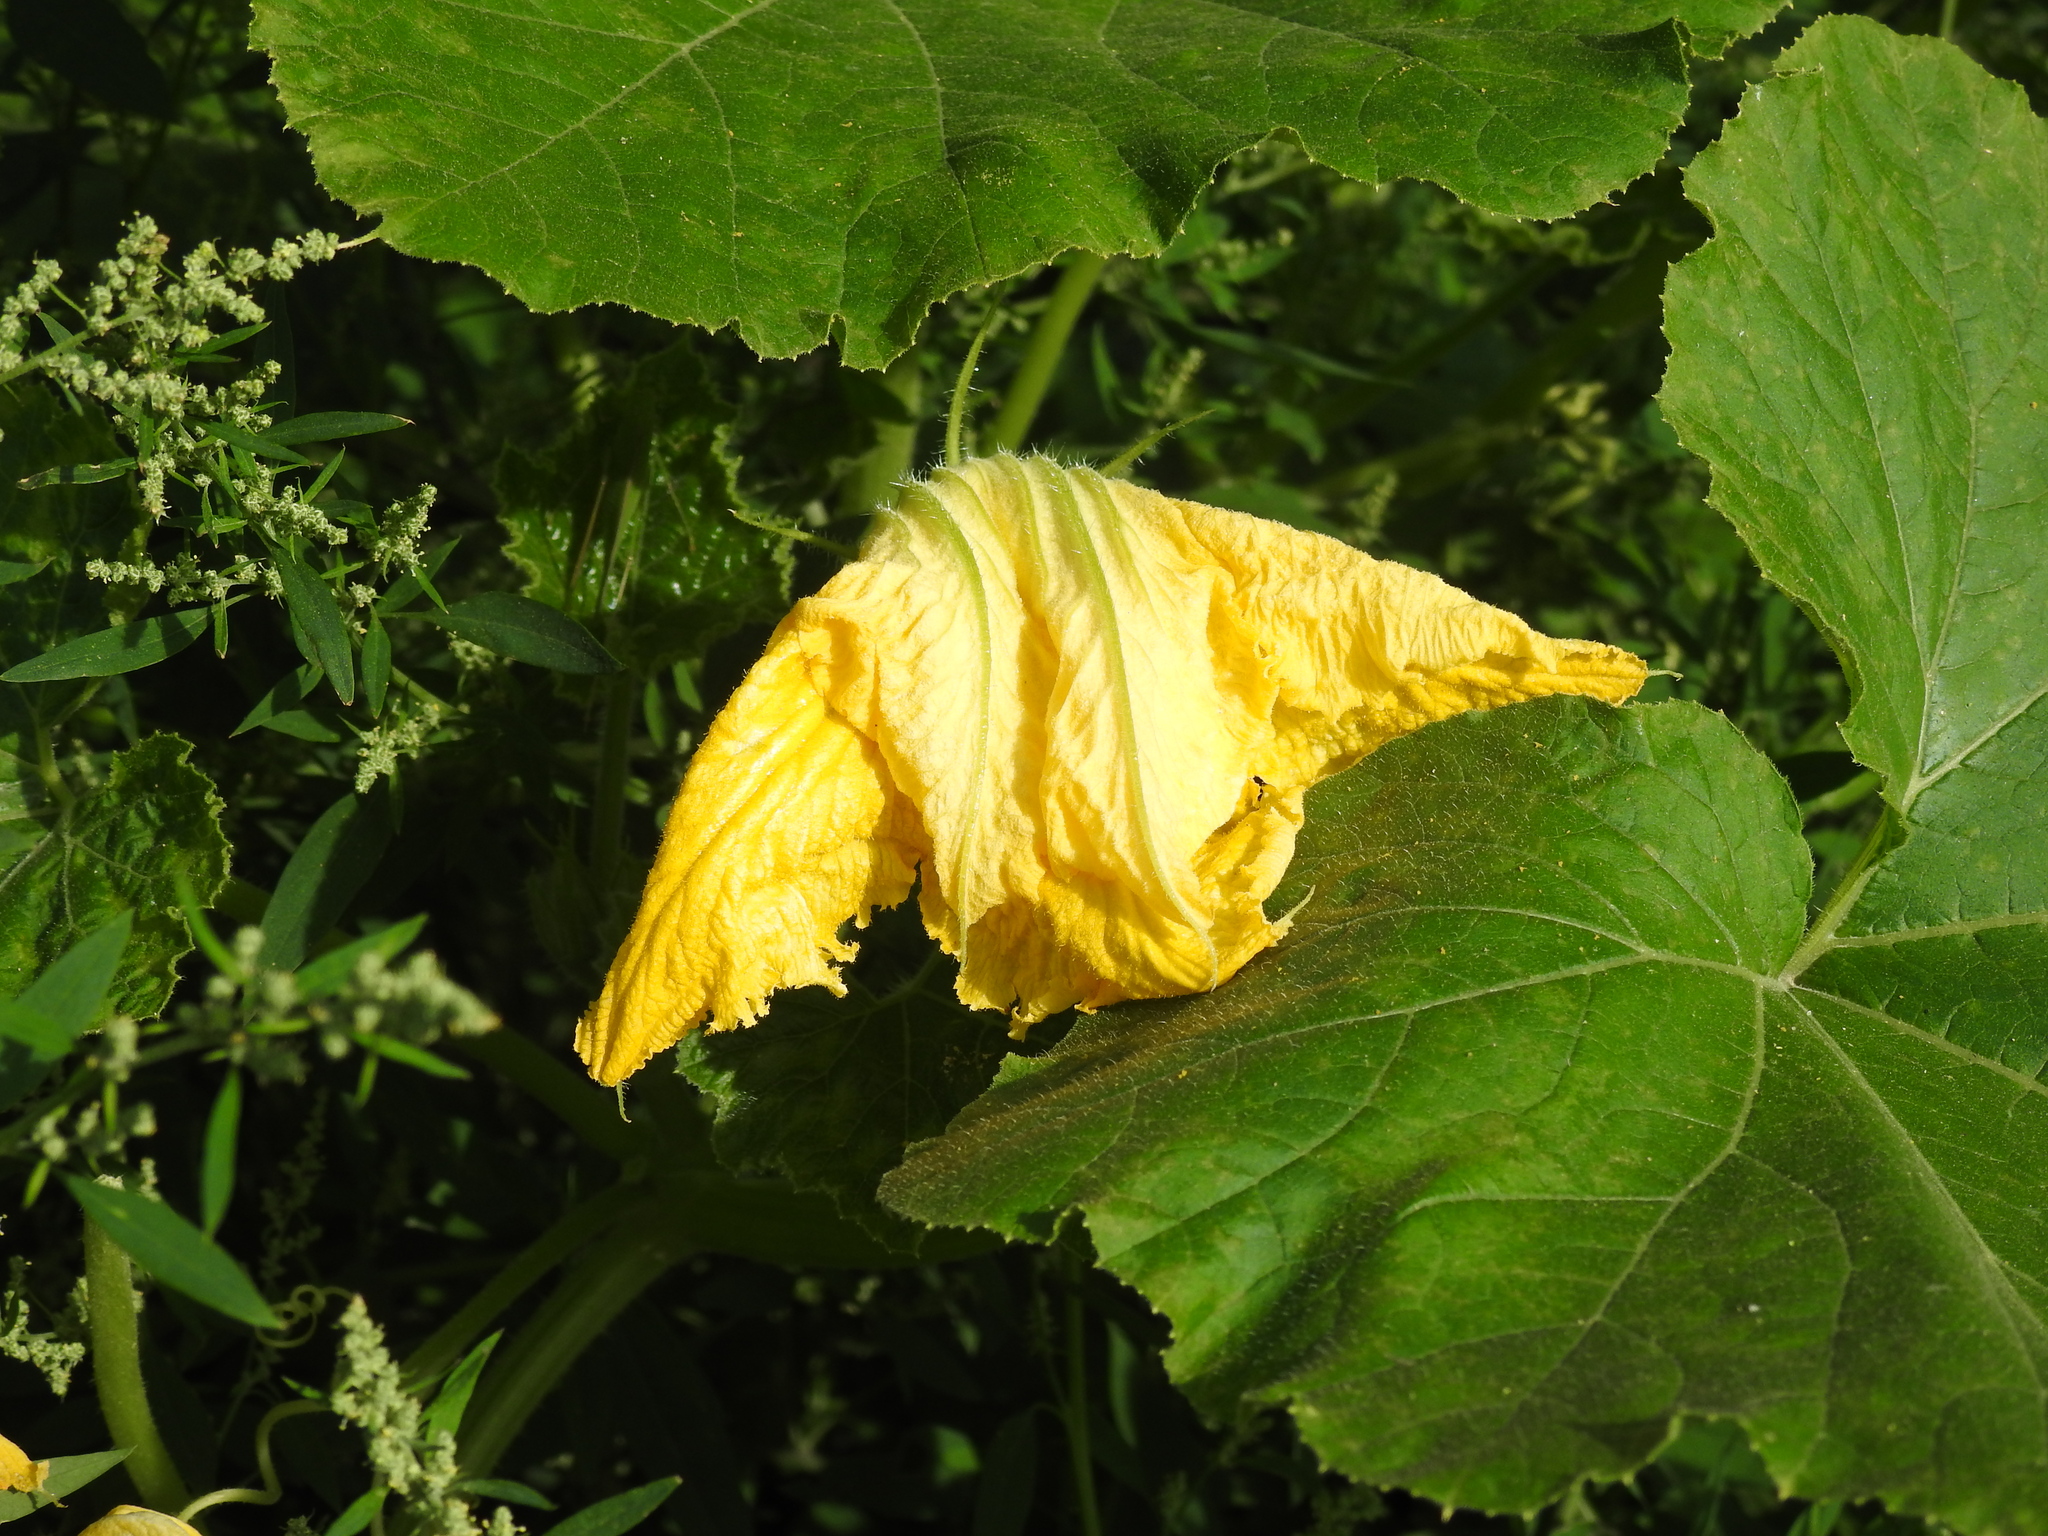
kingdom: Plantae
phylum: Tracheophyta
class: Magnoliopsida
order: Cucurbitales
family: Cucurbitaceae
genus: Cucurbita
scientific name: Cucurbita pepo
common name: Marrow
